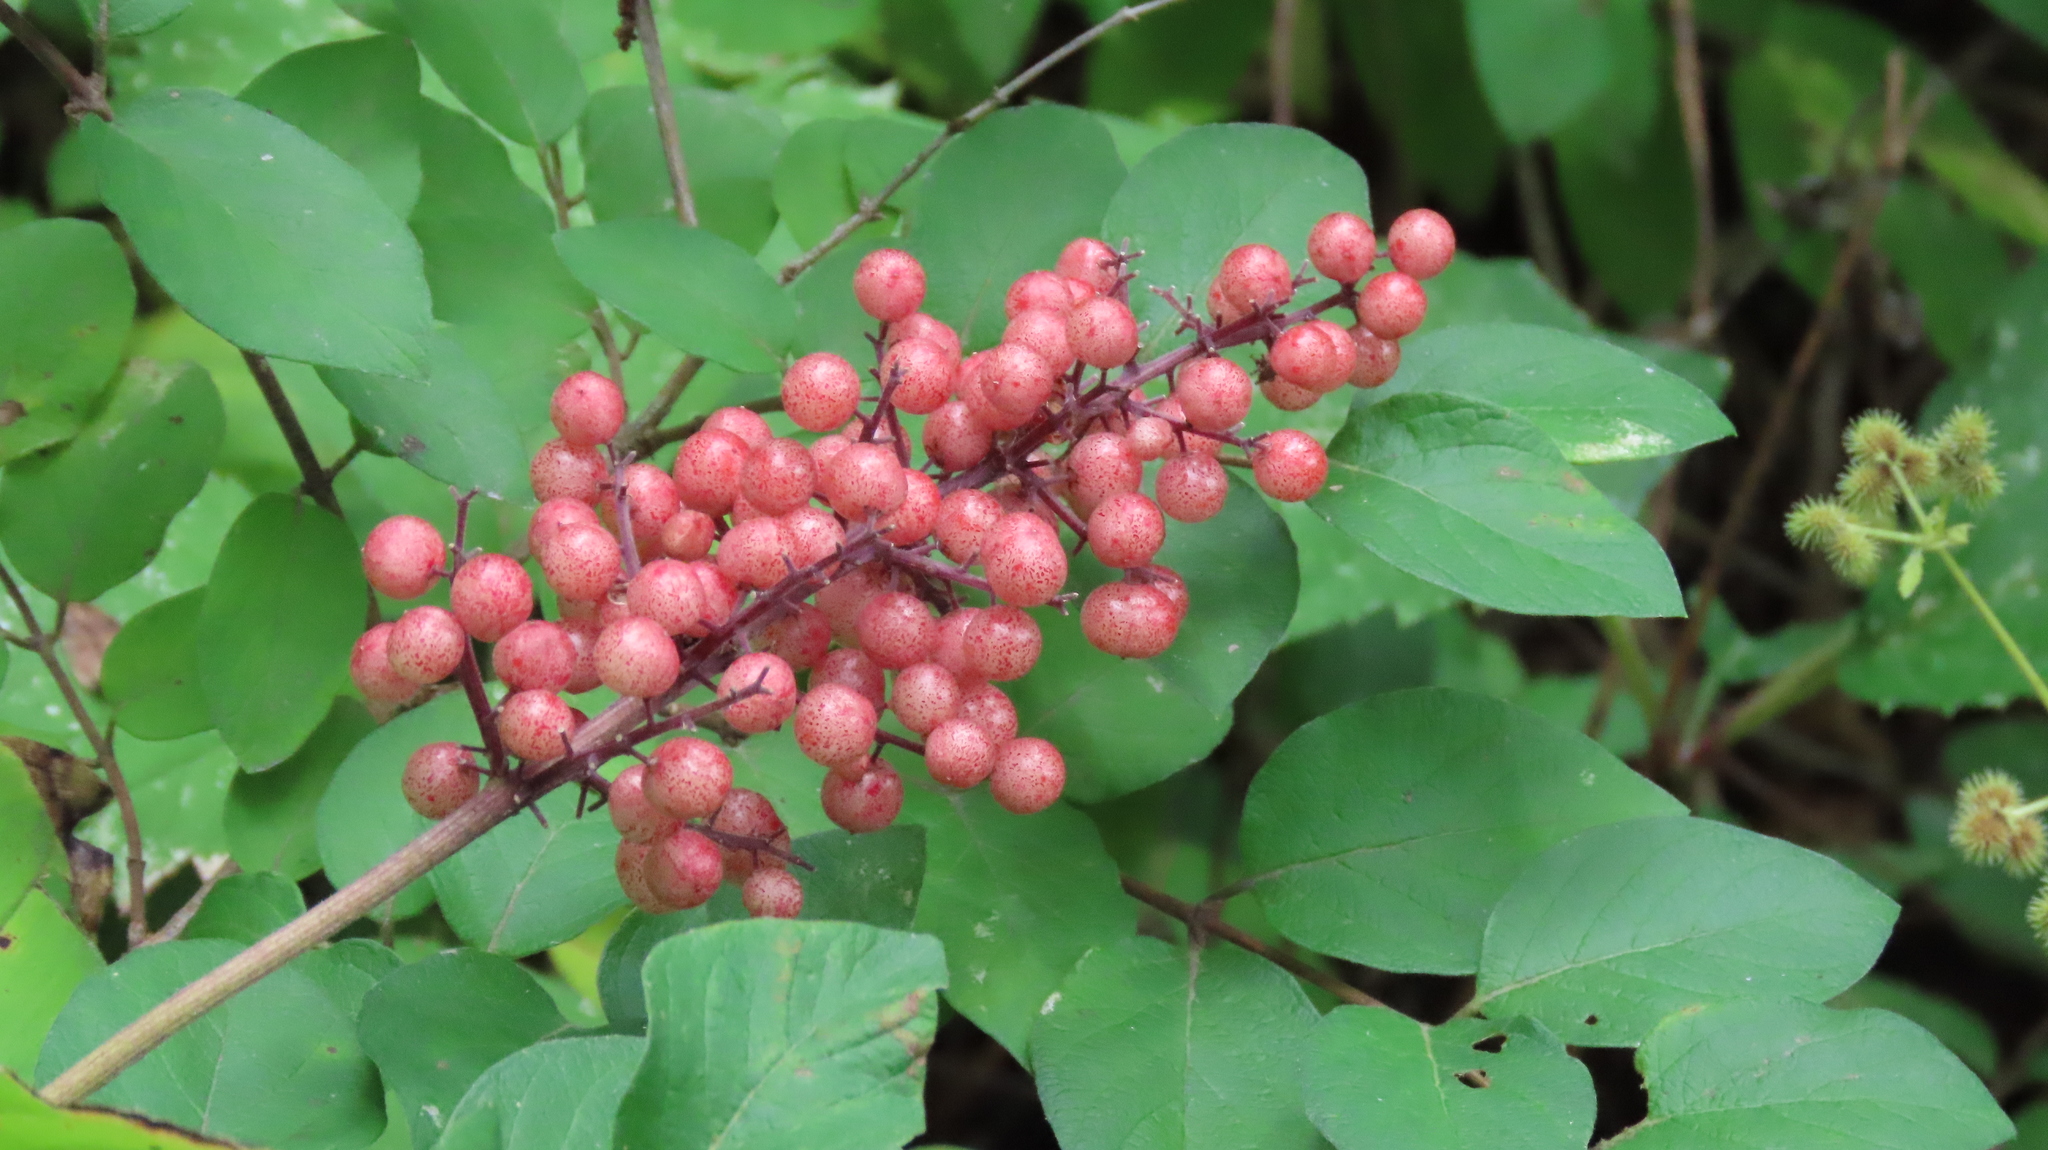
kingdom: Plantae
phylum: Tracheophyta
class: Liliopsida
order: Asparagales
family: Asparagaceae
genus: Maianthemum
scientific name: Maianthemum racemosum
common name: False spikenard
